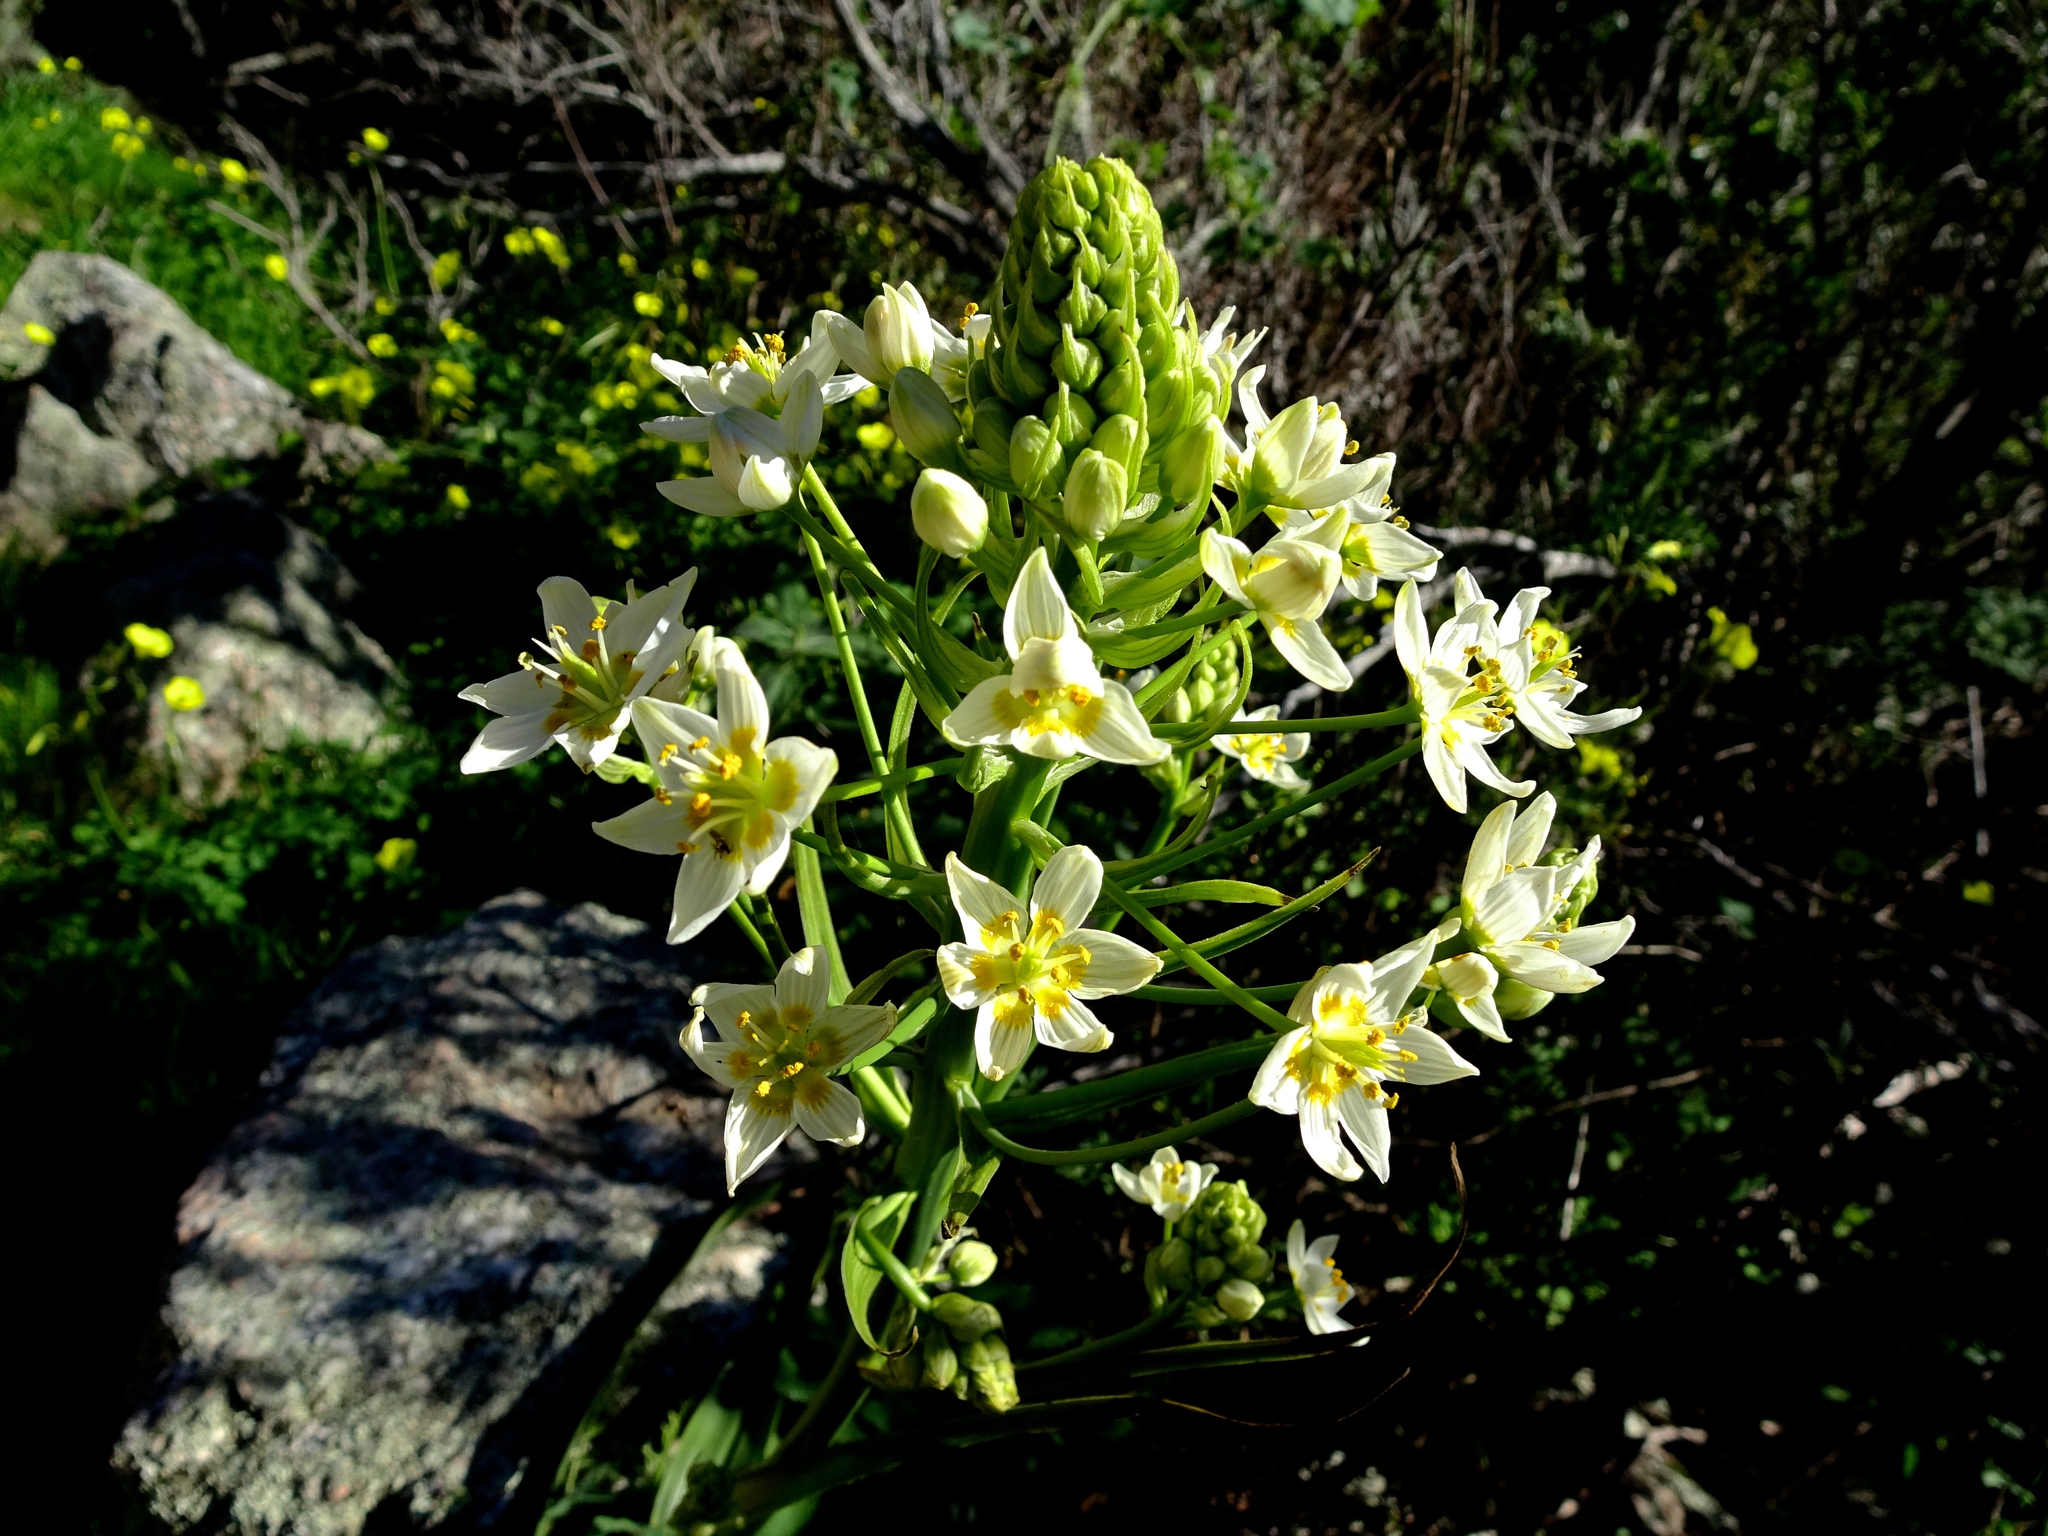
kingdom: Plantae
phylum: Tracheophyta
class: Liliopsida
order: Liliales
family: Melanthiaceae
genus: Toxicoscordion
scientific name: Toxicoscordion fremontii
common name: Fremont's death camas
